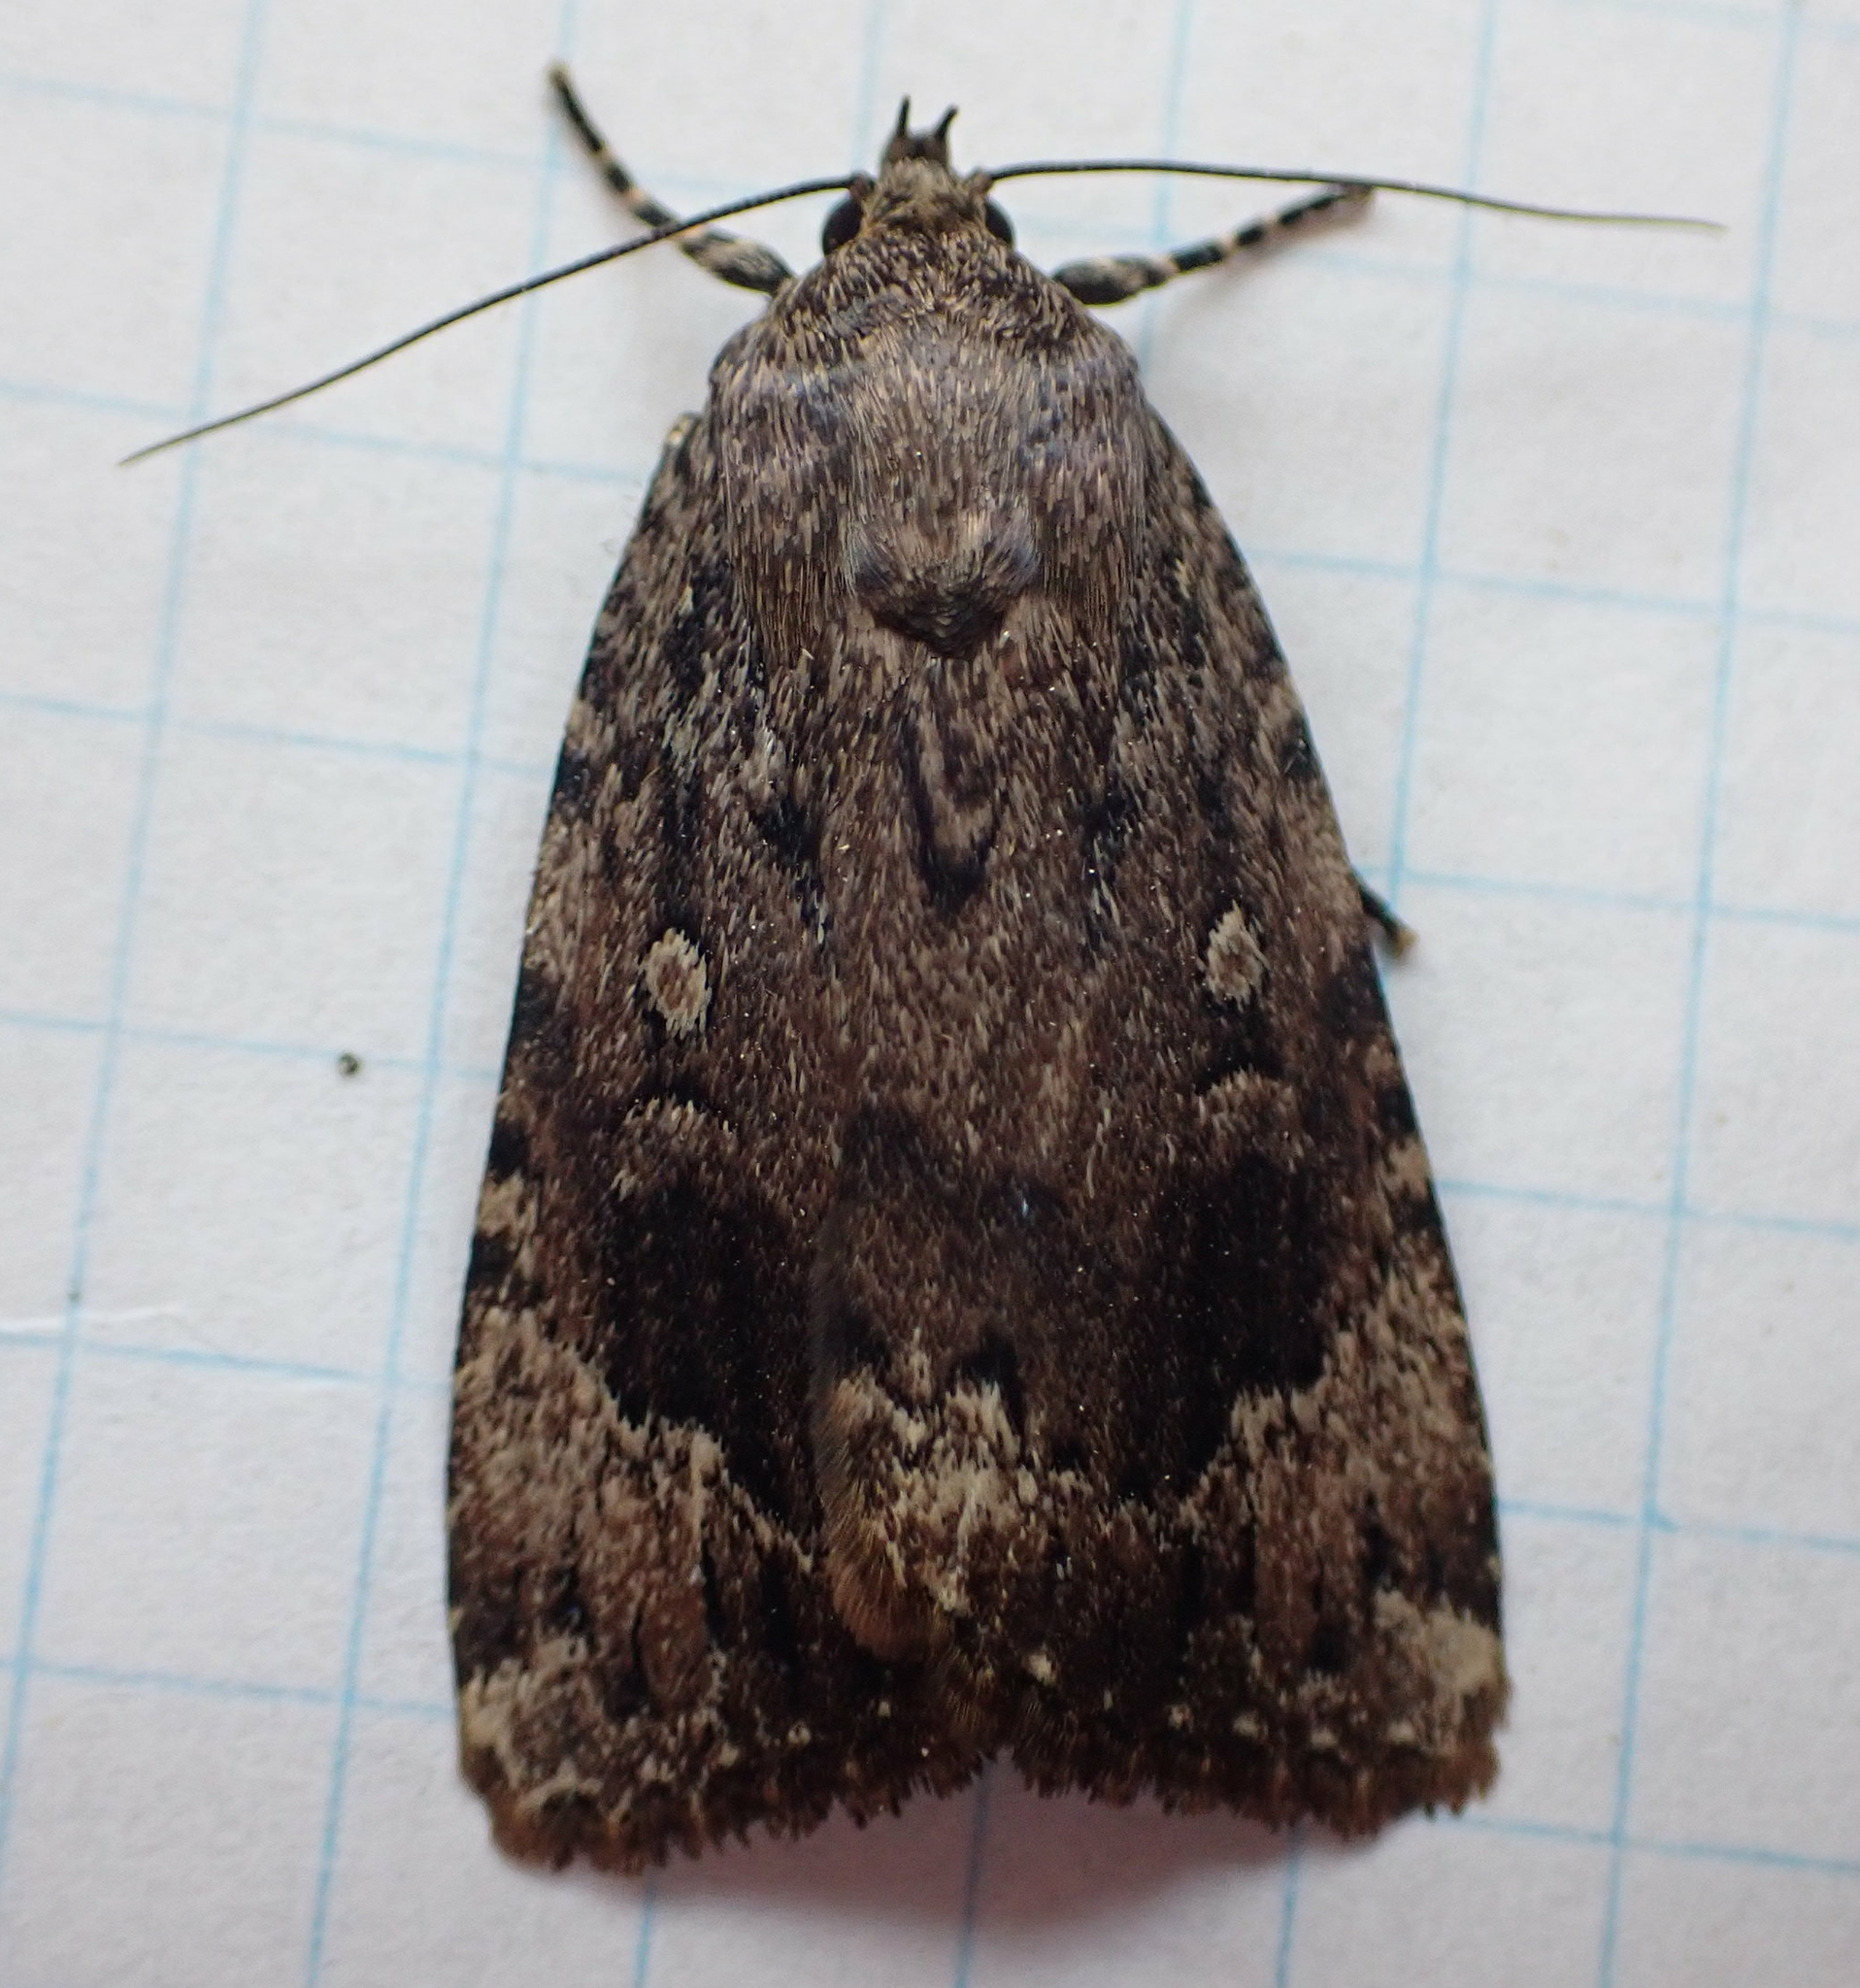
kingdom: Animalia
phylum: Arthropoda
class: Insecta
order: Lepidoptera
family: Noctuidae
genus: Amphipyra
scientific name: Amphipyra pyramidoides
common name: American copper underwing
